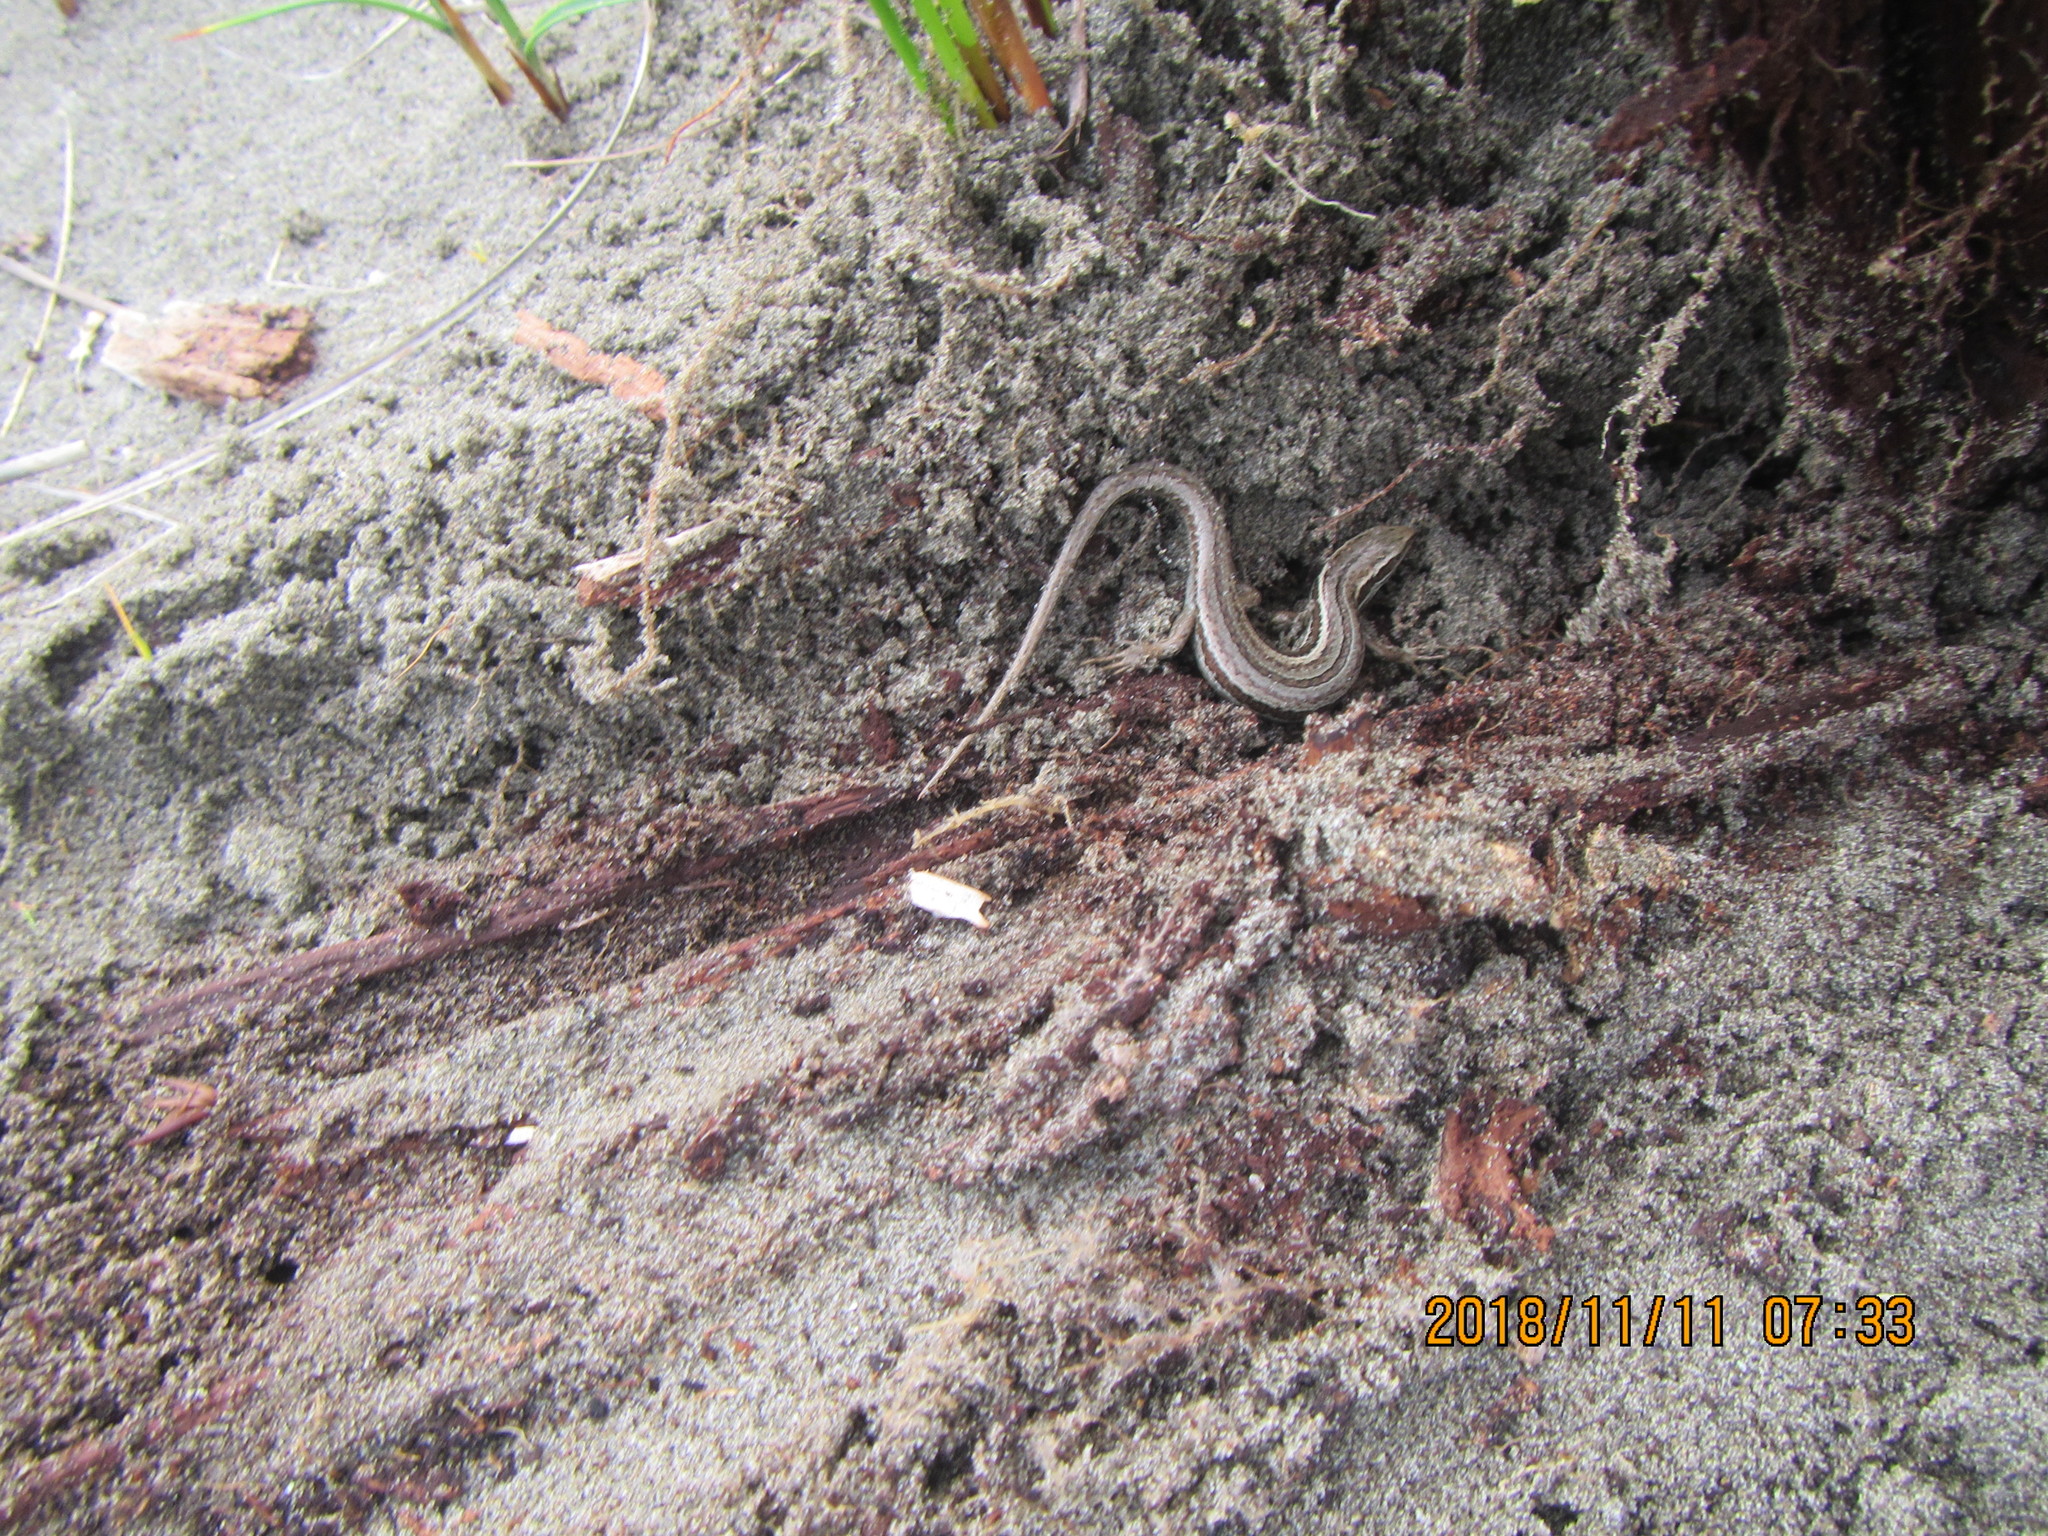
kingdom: Animalia
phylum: Chordata
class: Squamata
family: Scincidae
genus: Oligosoma
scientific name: Oligosoma polychroma
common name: Common new zealand skink
